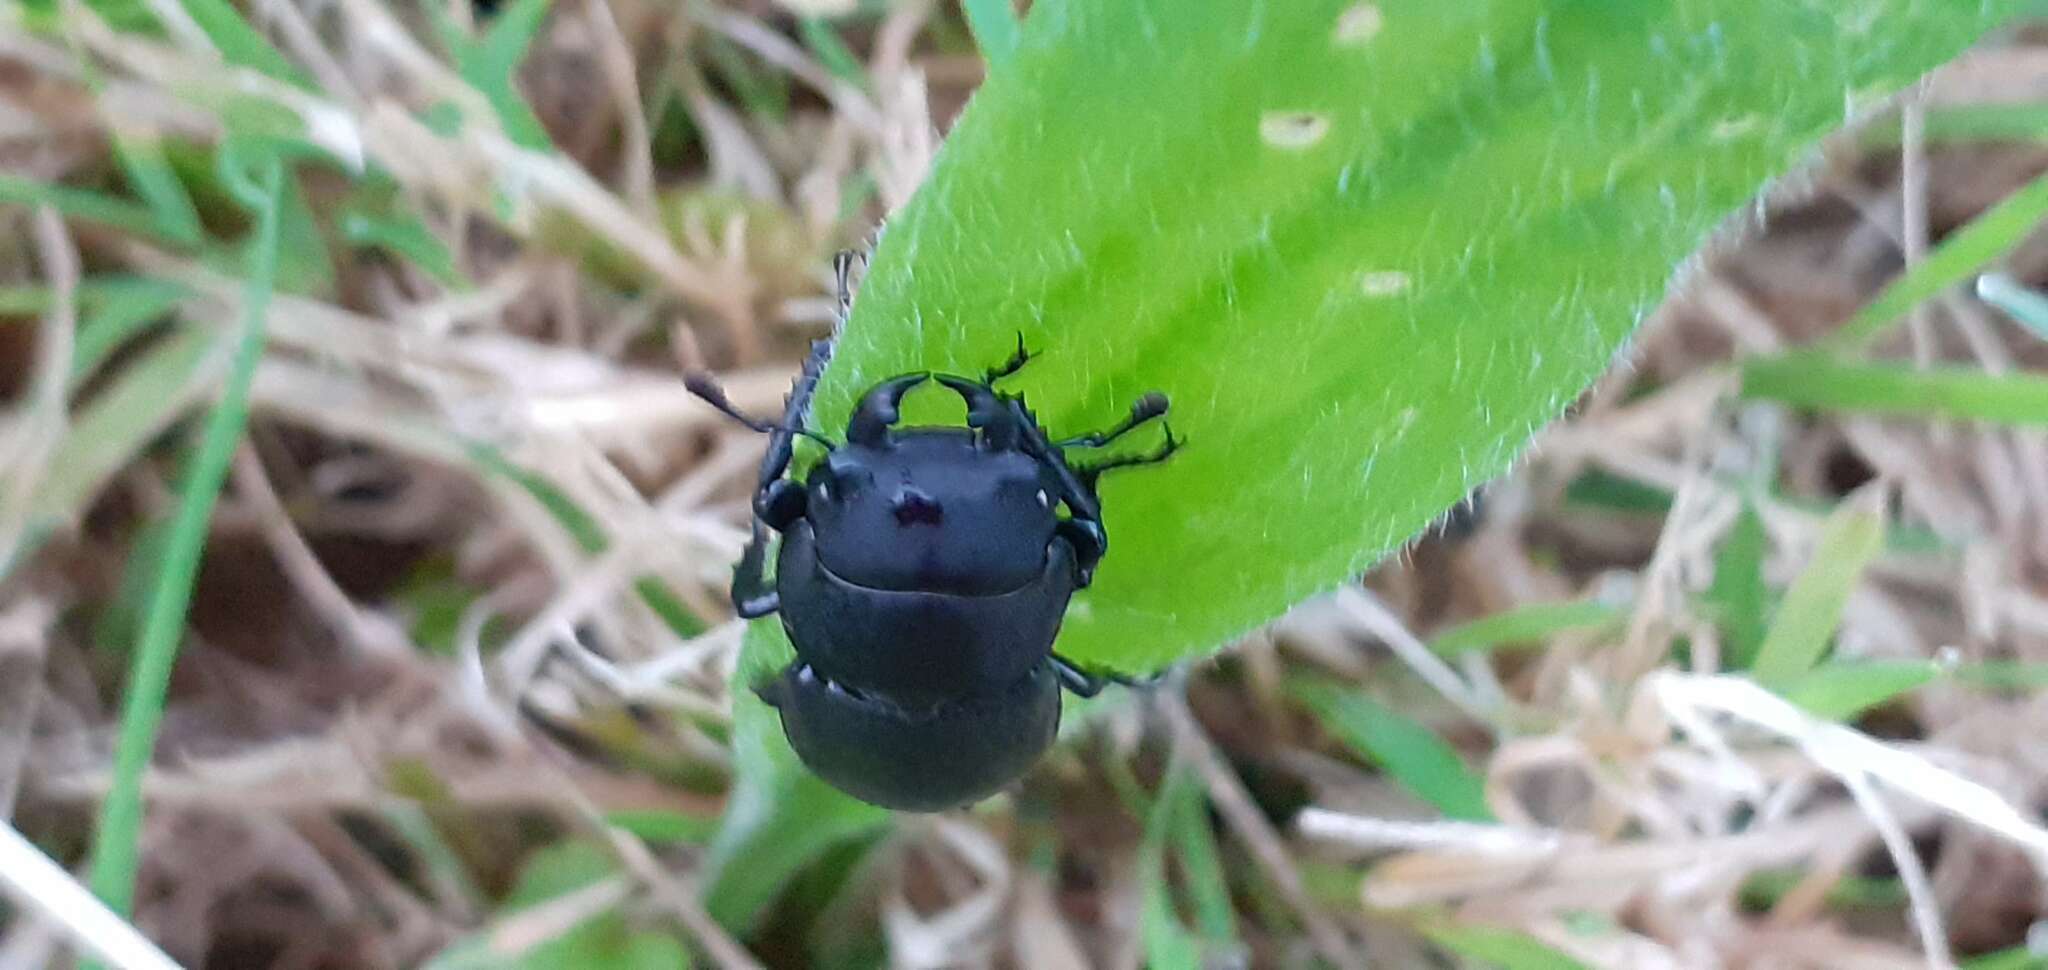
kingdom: Animalia
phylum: Arthropoda
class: Insecta
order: Coleoptera
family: Lucanidae
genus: Dorcus
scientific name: Dorcus parallelipipedus
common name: Lesser stag beetle
